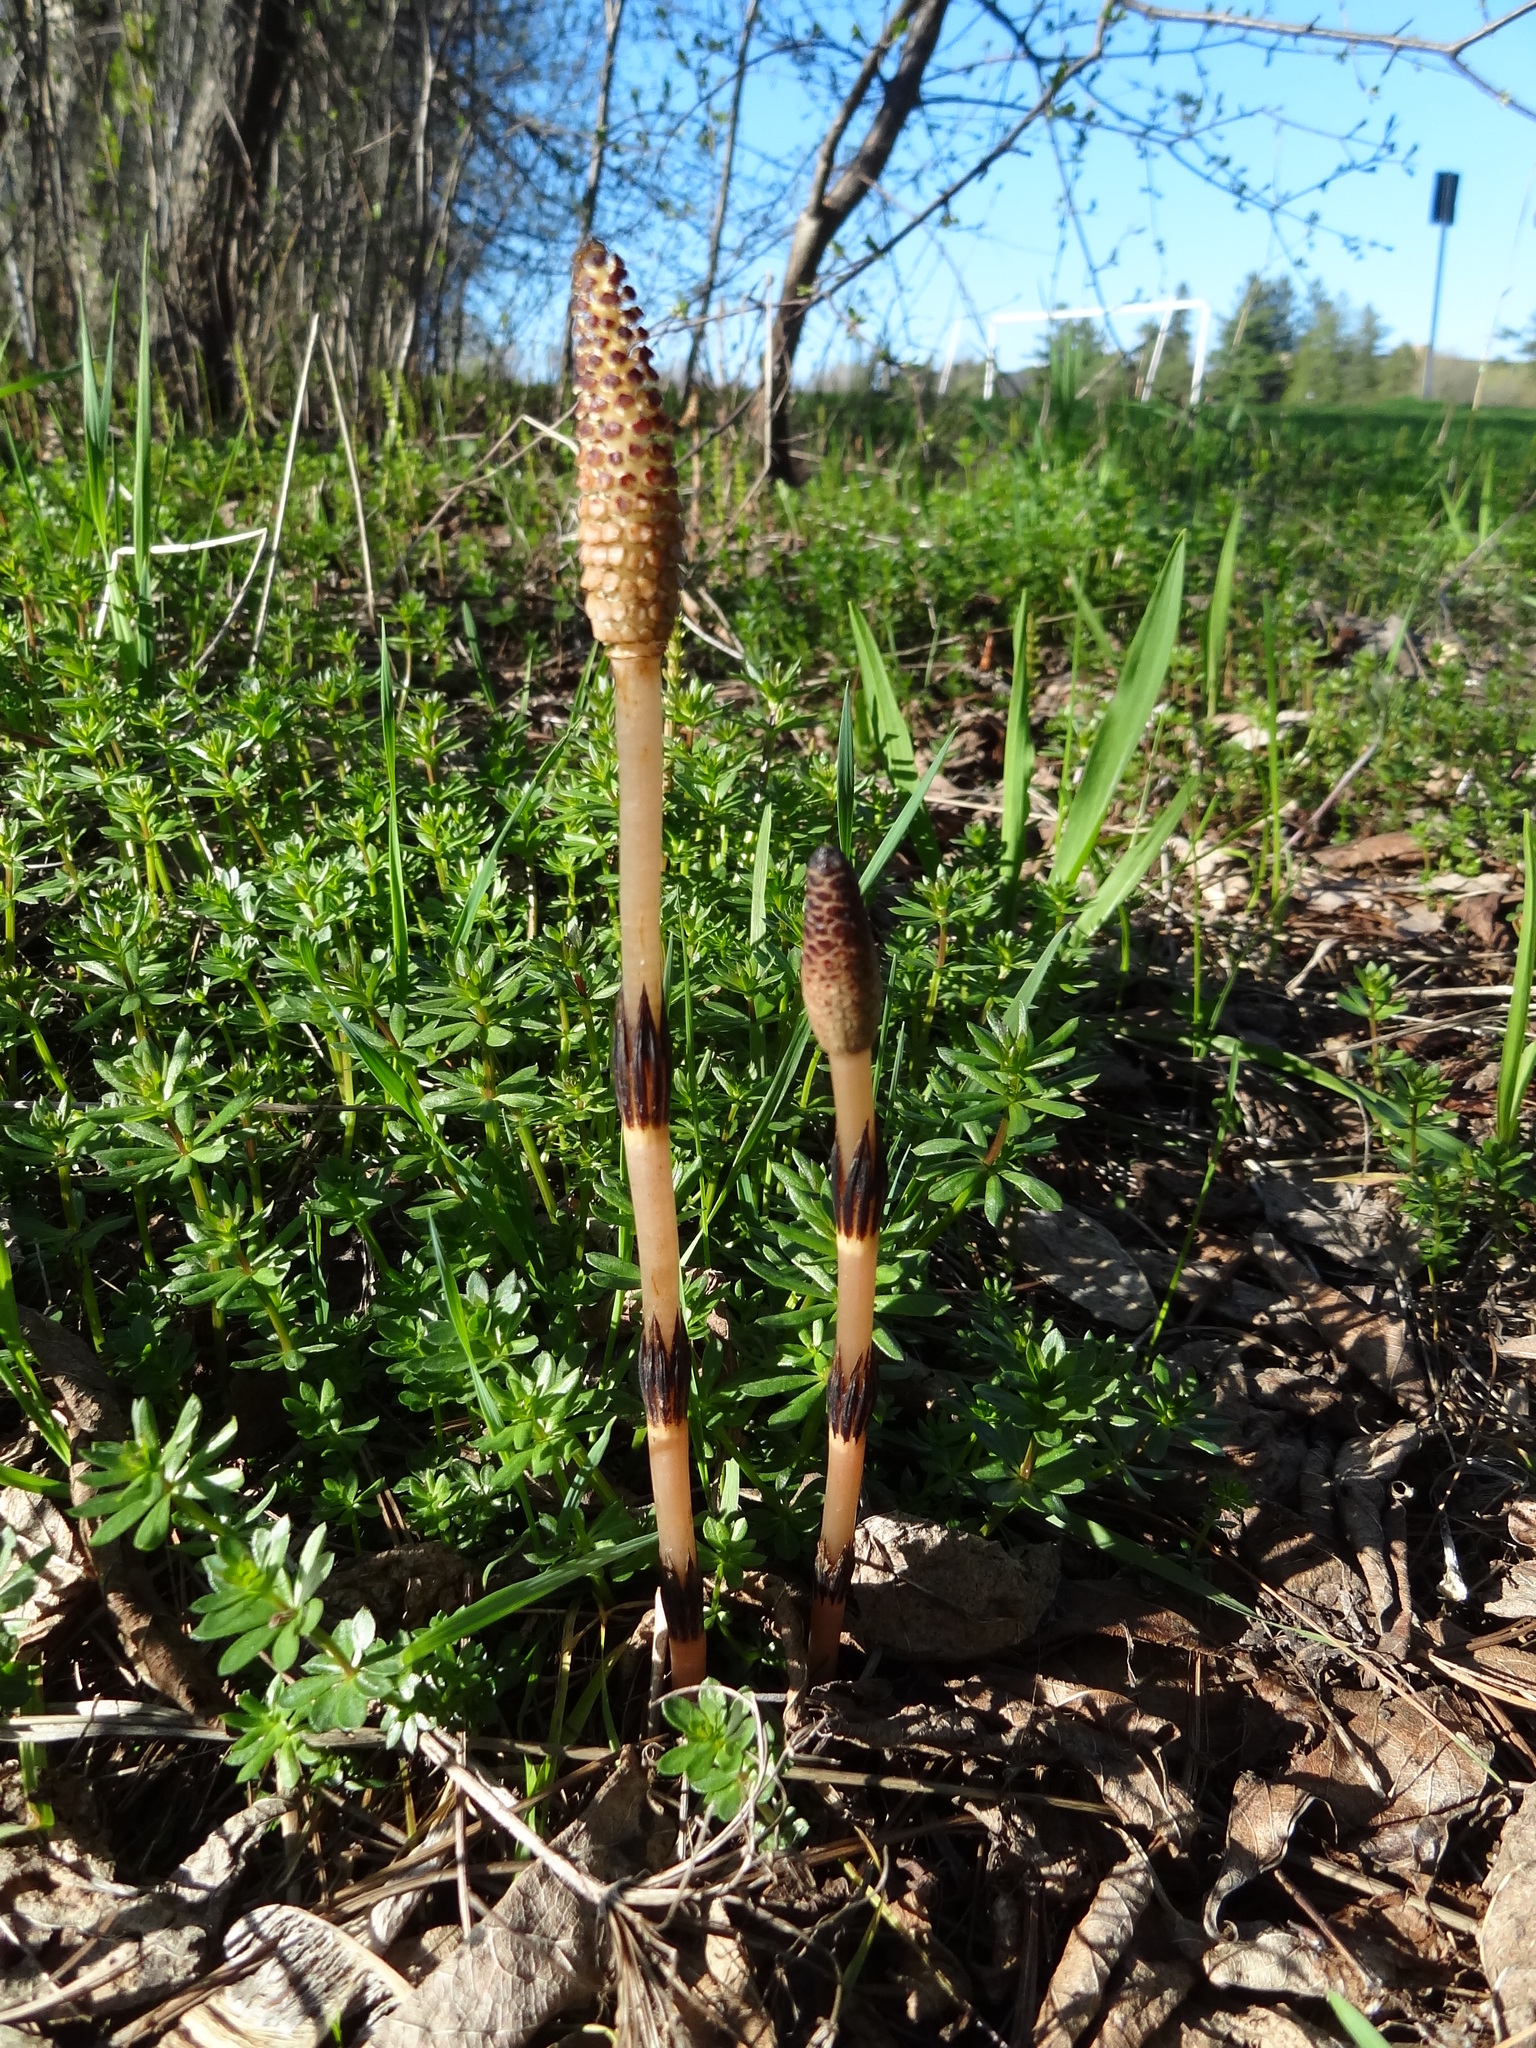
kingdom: Plantae
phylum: Tracheophyta
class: Polypodiopsida
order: Equisetales
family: Equisetaceae
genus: Equisetum
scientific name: Equisetum arvense
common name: Field horsetail
